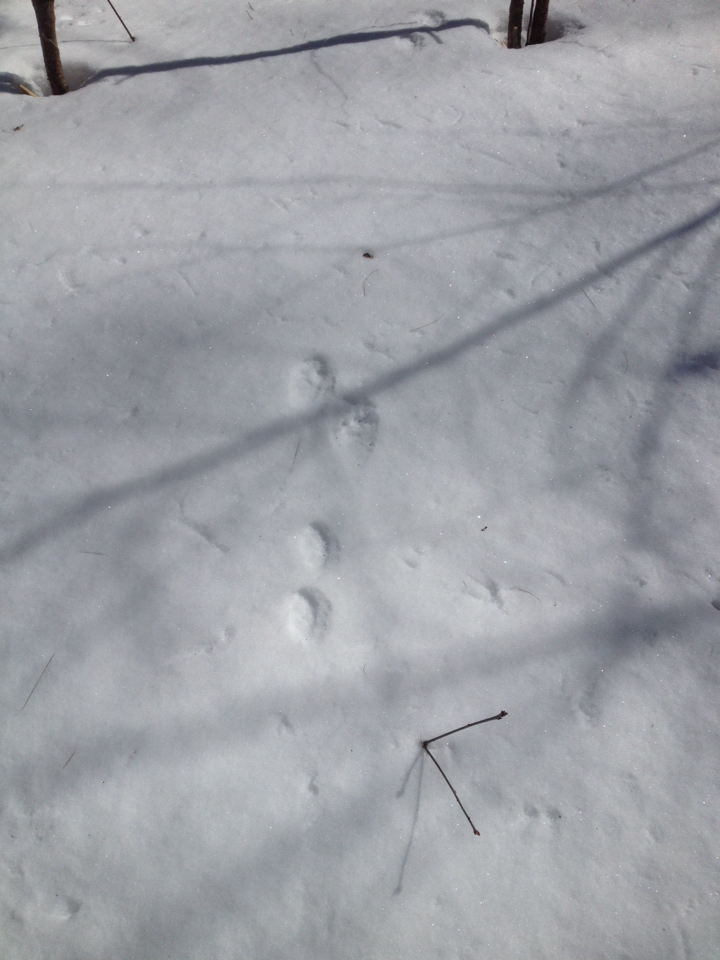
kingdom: Animalia
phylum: Chordata
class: Mammalia
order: Lagomorpha
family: Leporidae
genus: Lepus
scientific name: Lepus americanus
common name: Snowshoe hare
